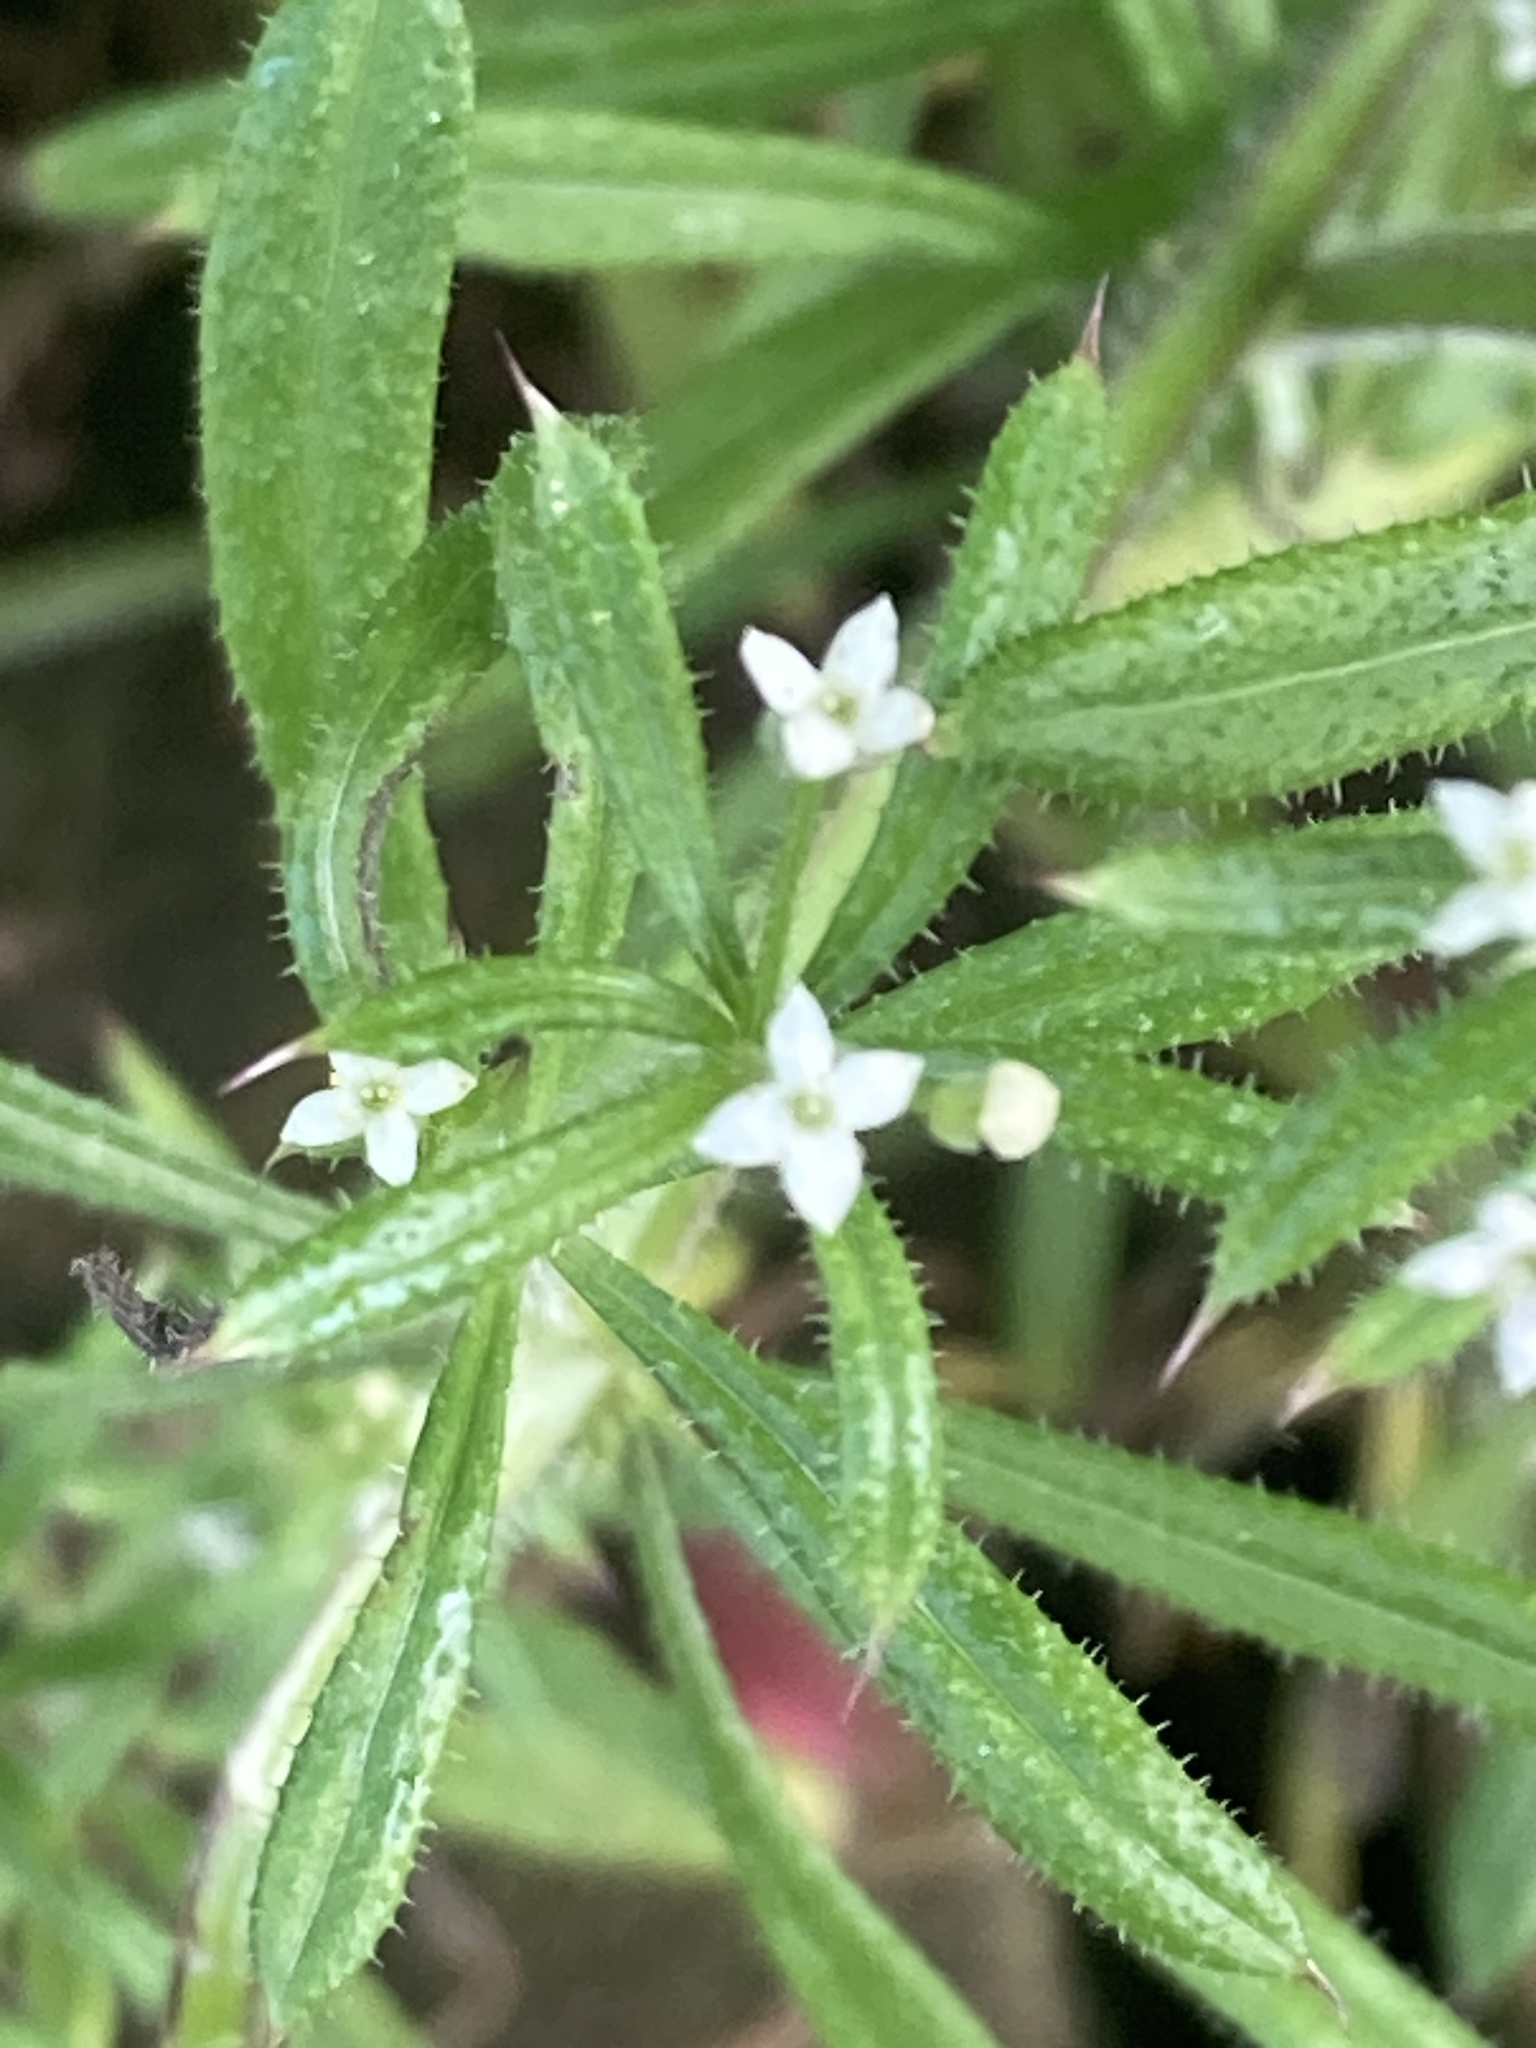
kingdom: Plantae
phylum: Tracheophyta
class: Magnoliopsida
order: Gentianales
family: Rubiaceae
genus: Galium
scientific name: Galium aparine
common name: Cleavers
